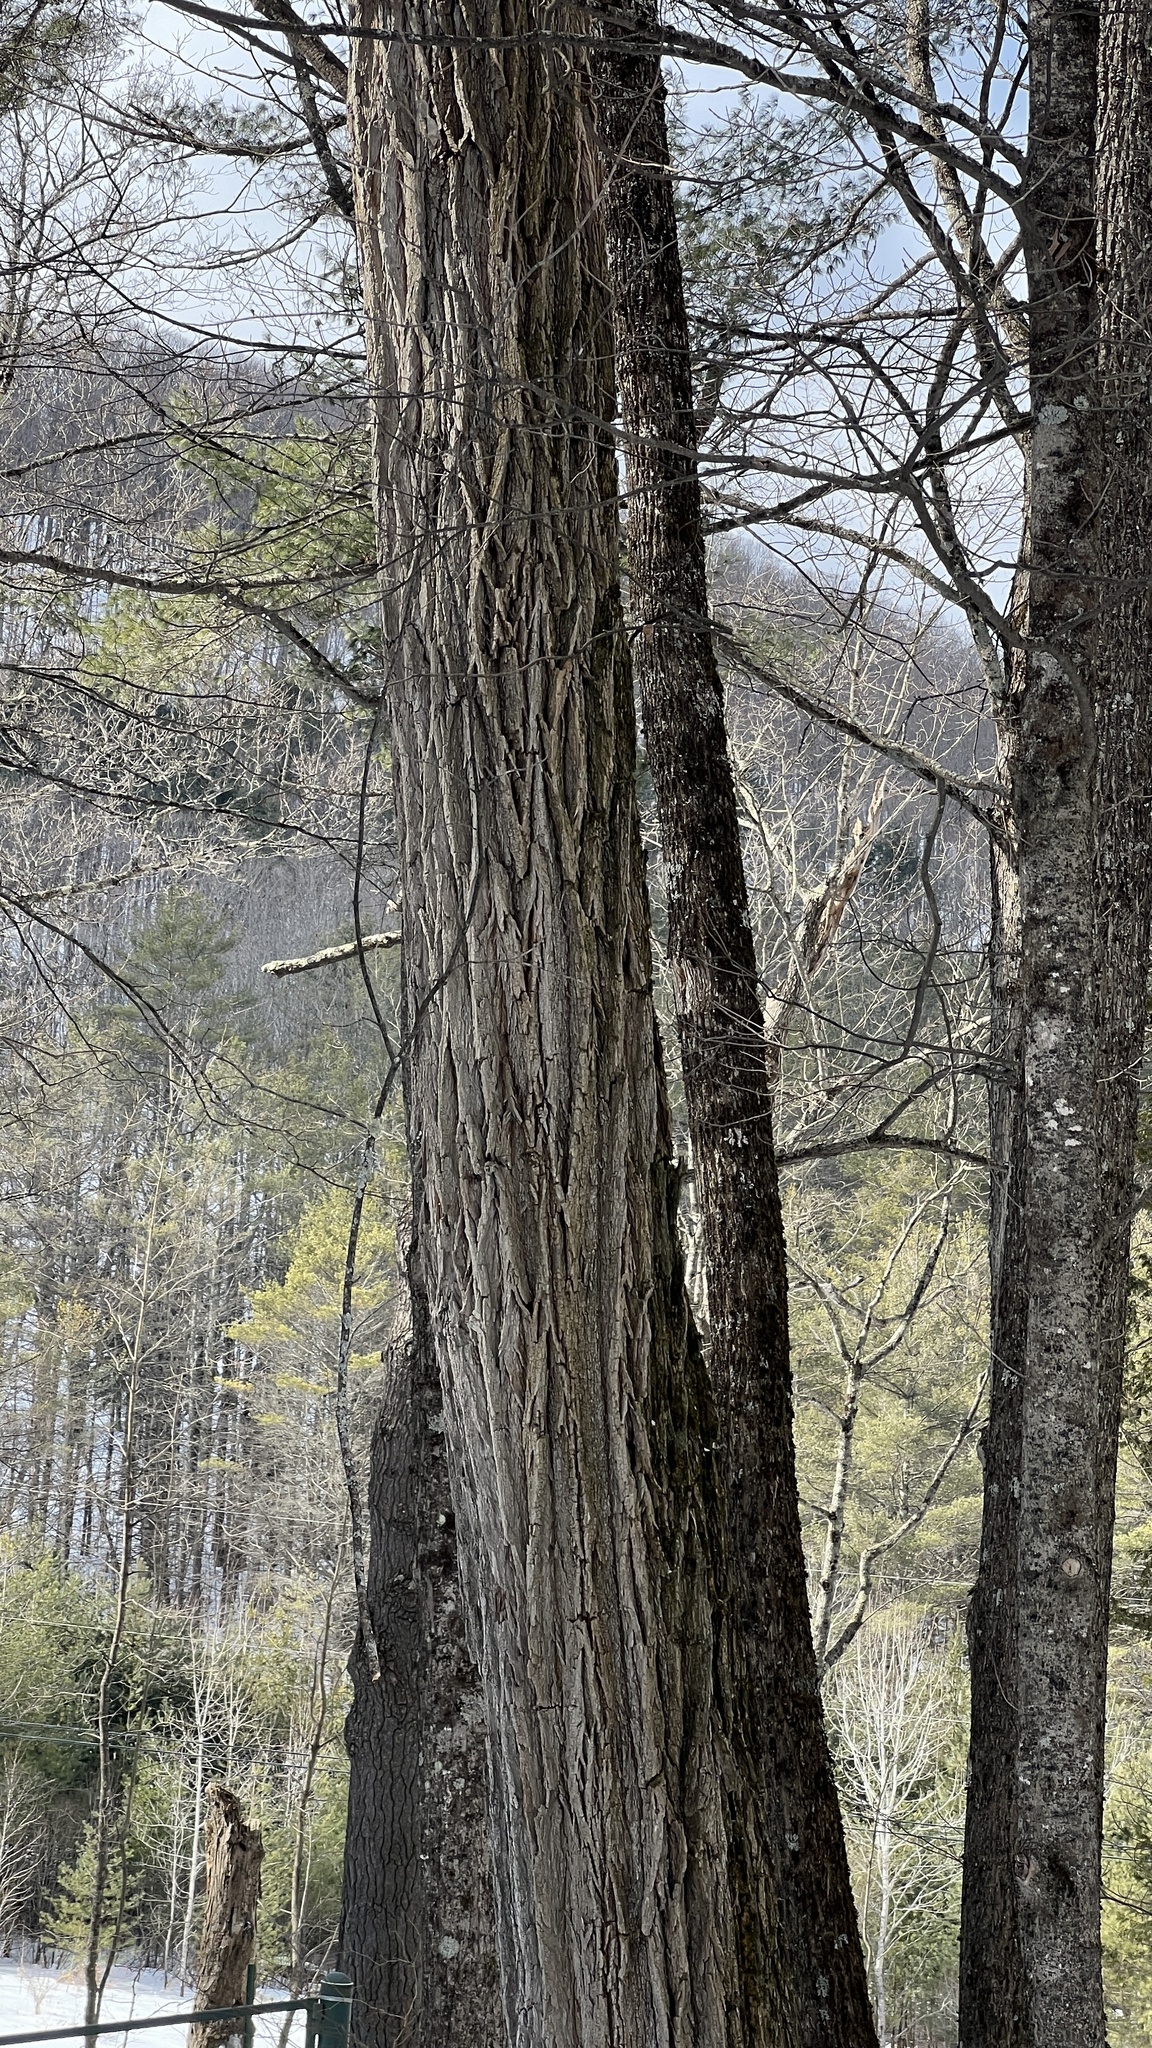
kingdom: Plantae
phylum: Tracheophyta
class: Magnoliopsida
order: Fabales
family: Fabaceae
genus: Robinia
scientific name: Robinia pseudoacacia
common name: Black locust
